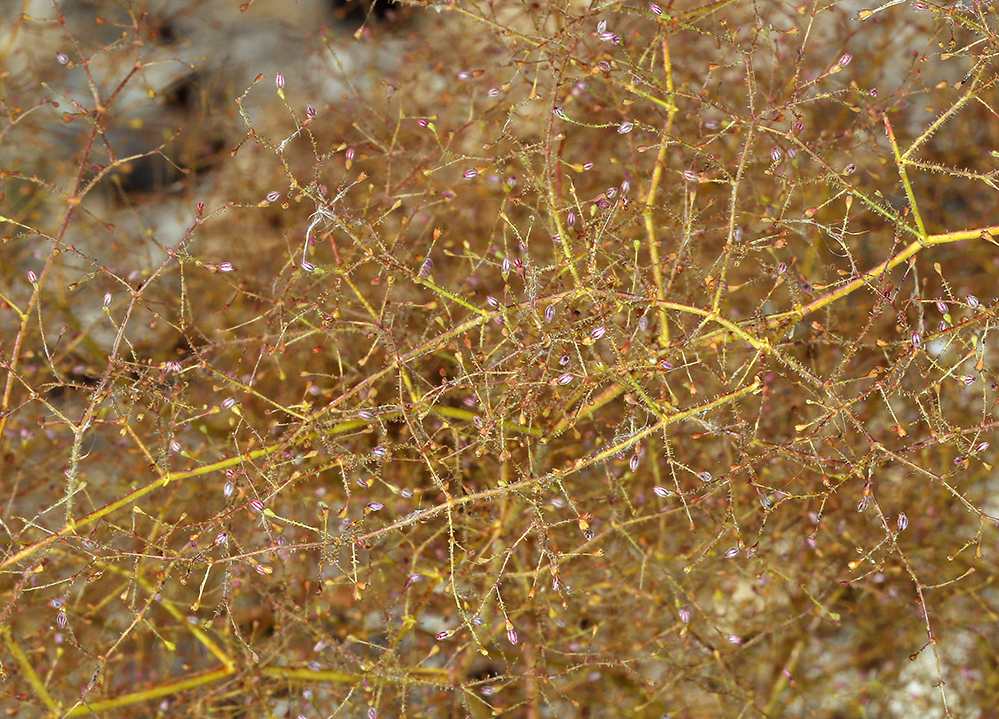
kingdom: Plantae
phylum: Tracheophyta
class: Magnoliopsida
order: Caryophyllales
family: Polygonaceae
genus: Eriogonum
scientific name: Eriogonum glandulosum
